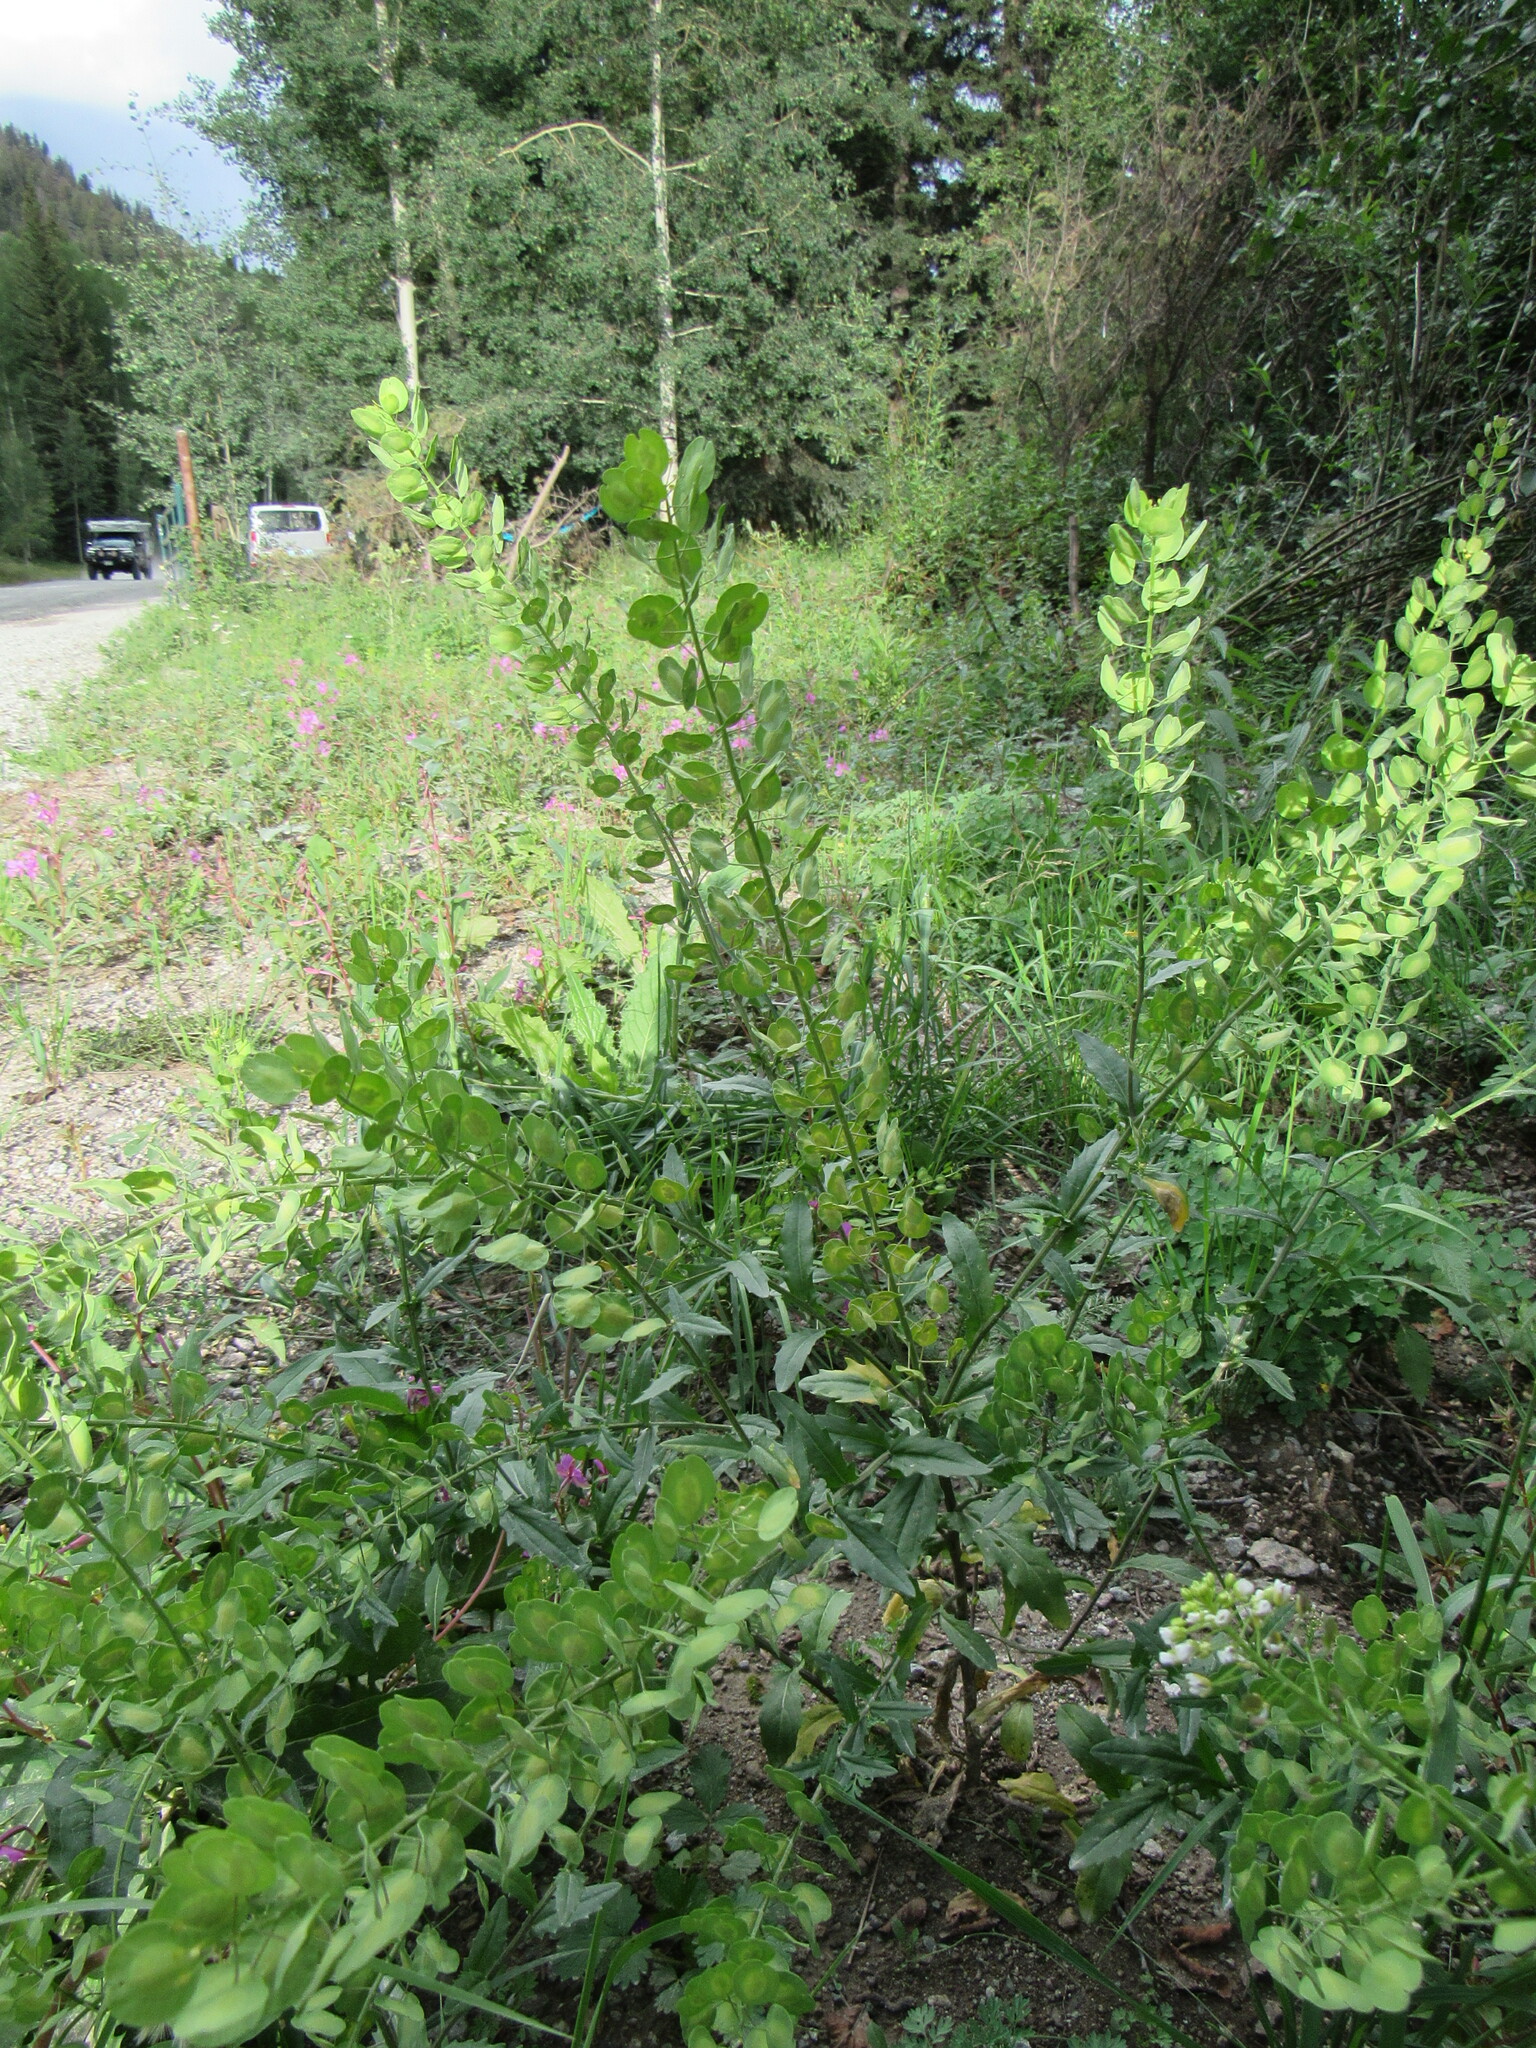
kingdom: Plantae
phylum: Tracheophyta
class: Magnoliopsida
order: Brassicales
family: Brassicaceae
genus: Thlaspi
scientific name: Thlaspi arvense
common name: Field pennycress
